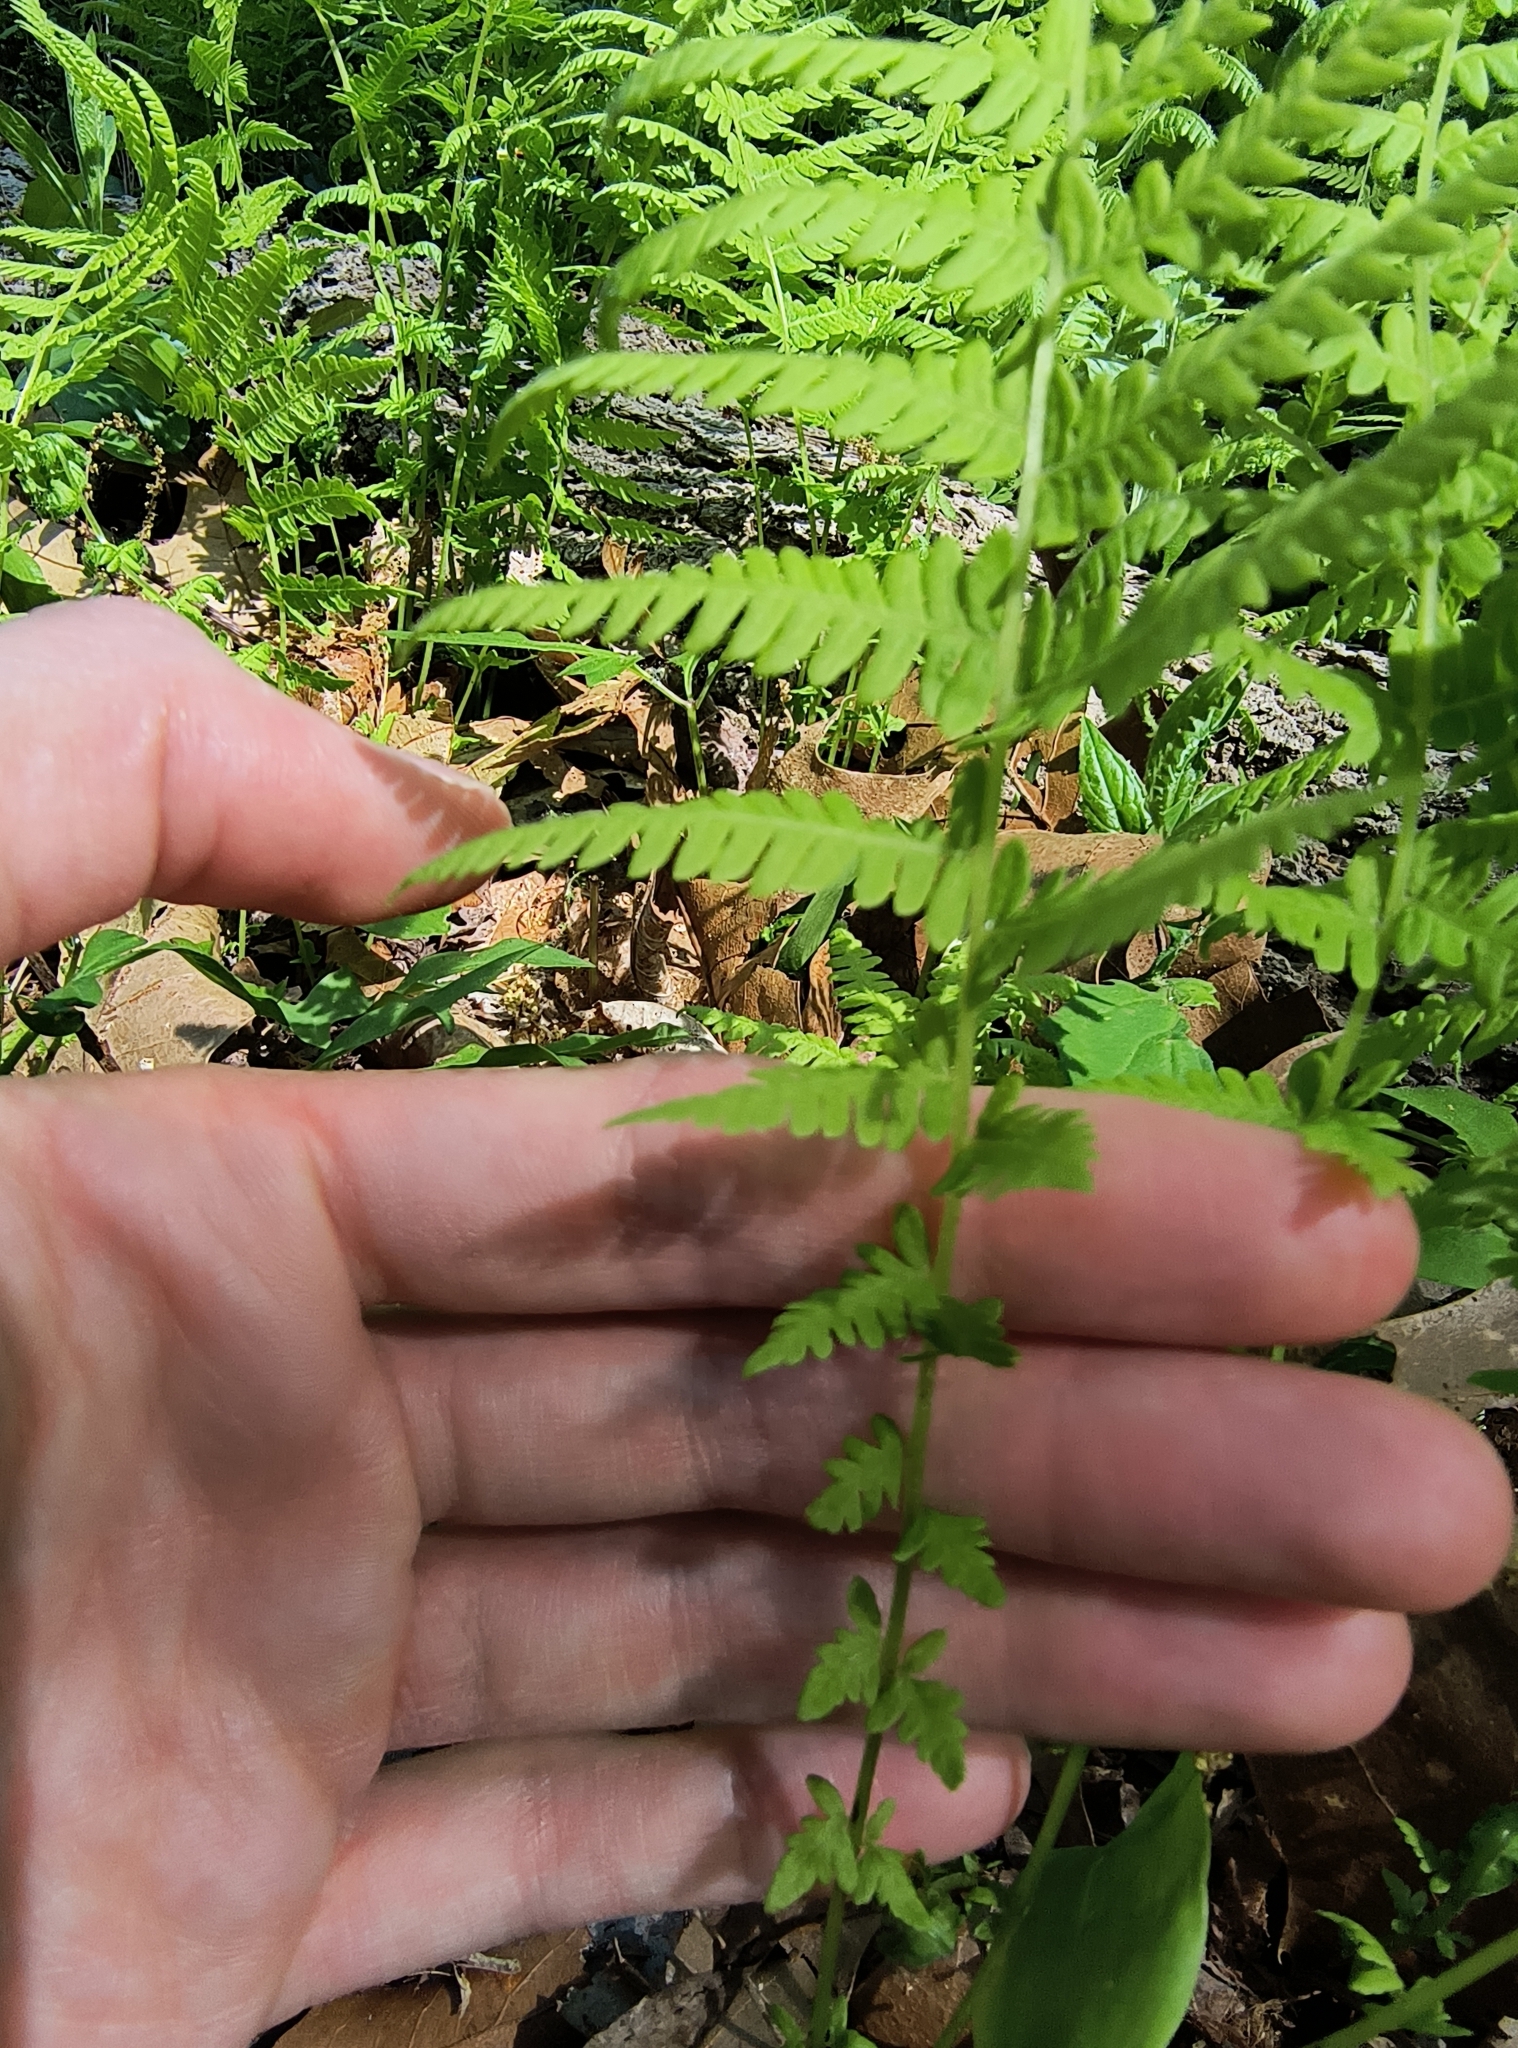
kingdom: Plantae
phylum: Tracheophyta
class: Polypodiopsida
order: Polypodiales
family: Thelypteridaceae
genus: Amauropelta
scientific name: Amauropelta noveboracensis
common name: New york fern
